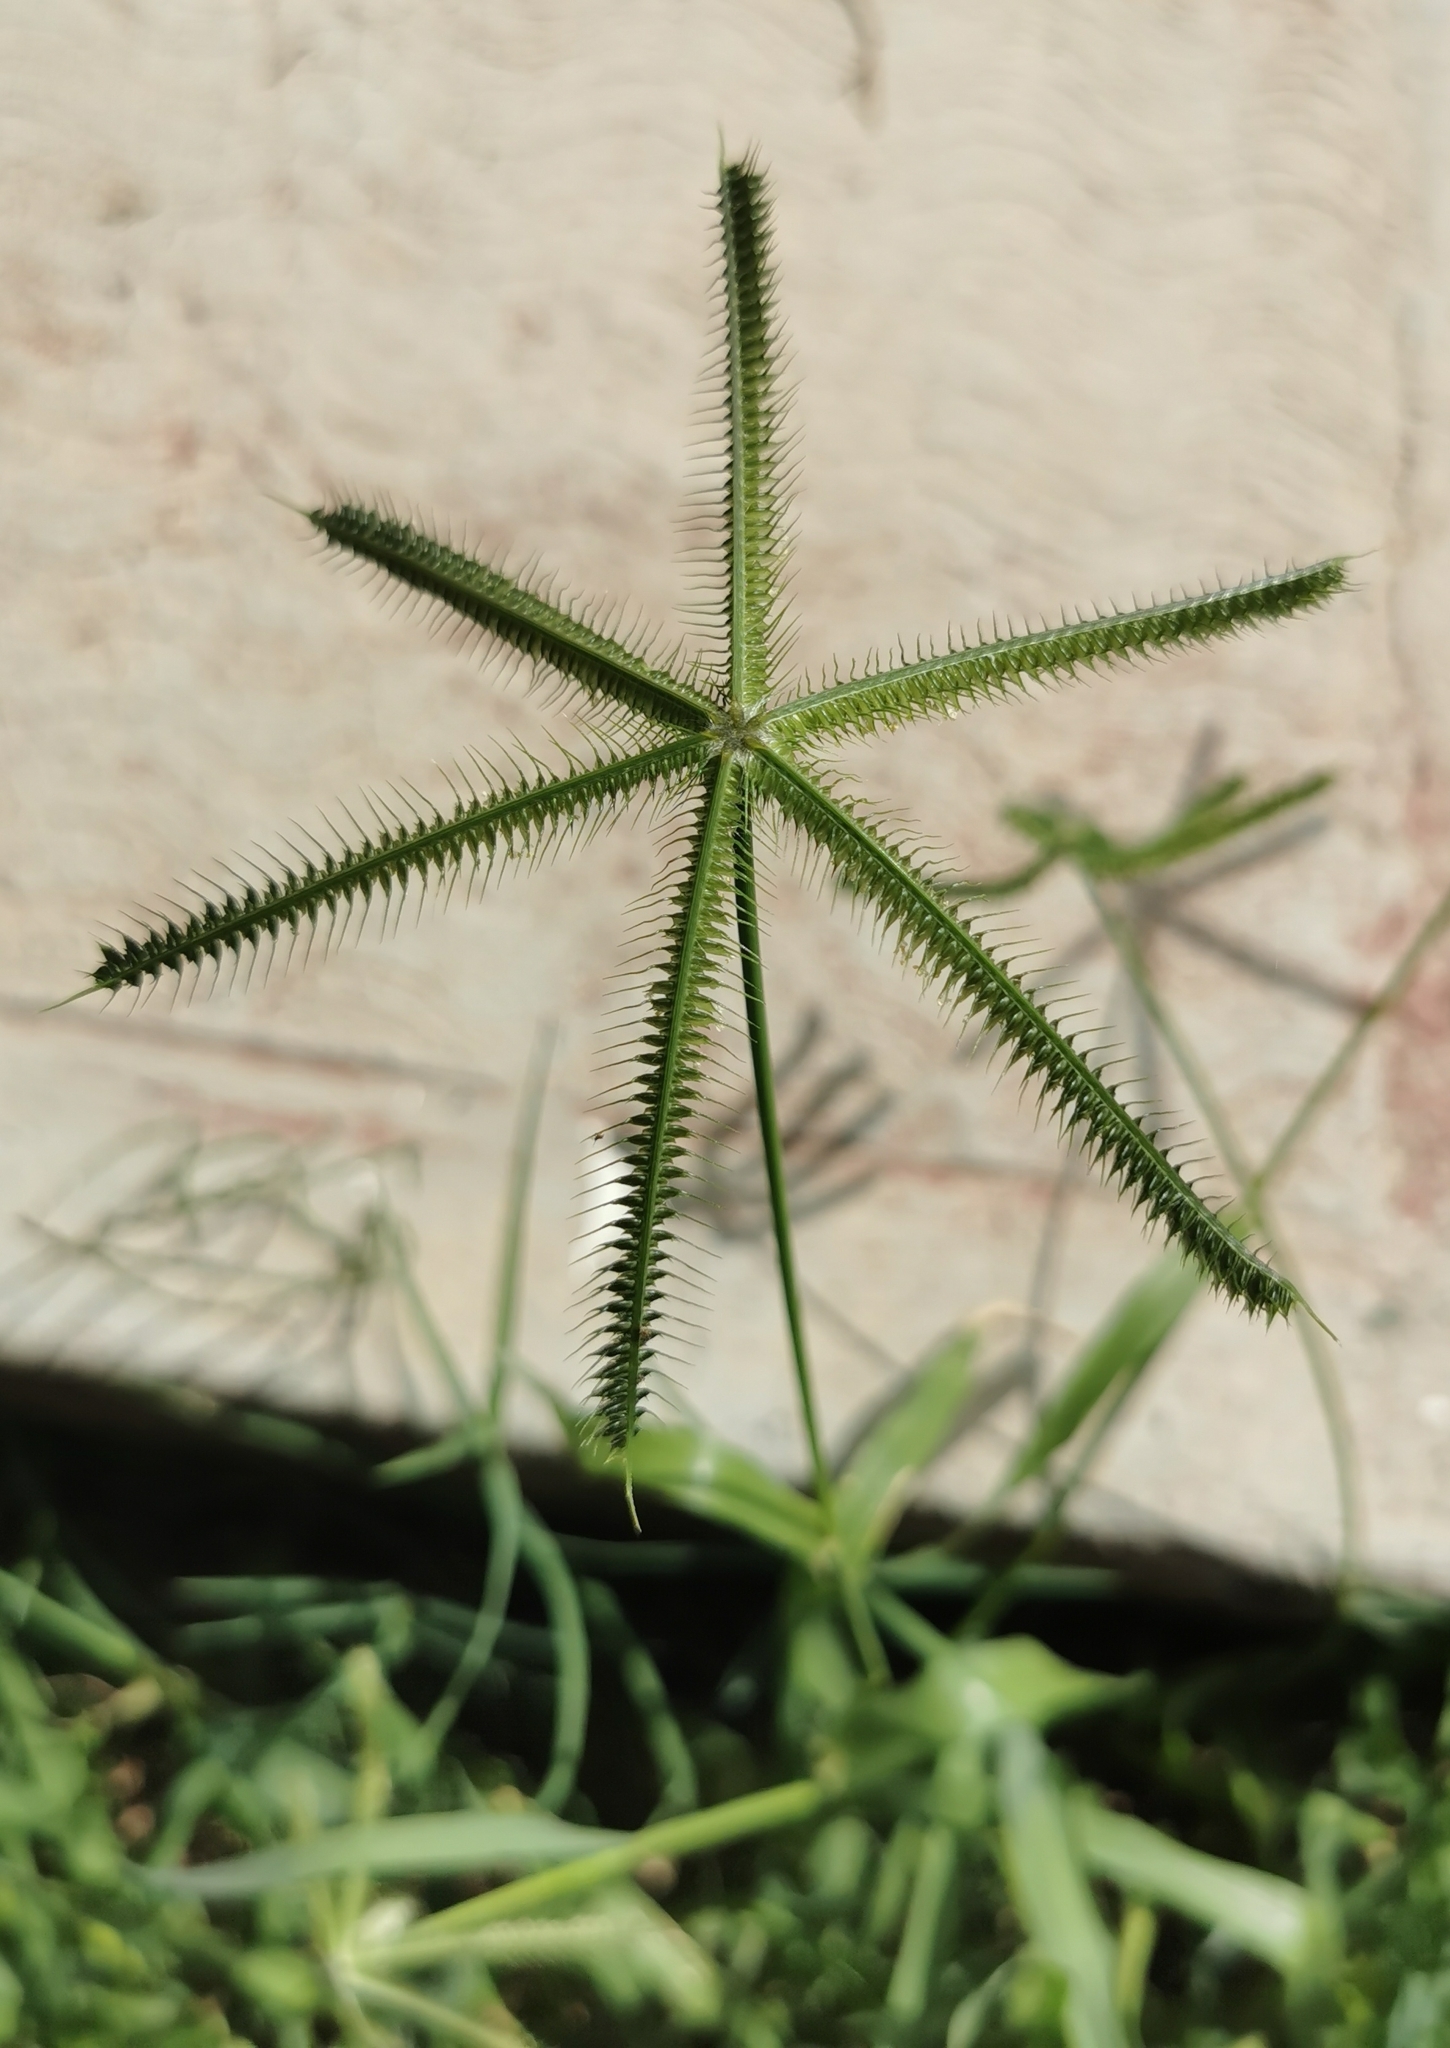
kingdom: Plantae
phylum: Tracheophyta
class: Liliopsida
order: Poales
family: Poaceae
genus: Dactyloctenium
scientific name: Dactyloctenium aegyptium
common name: Egyptian grass
